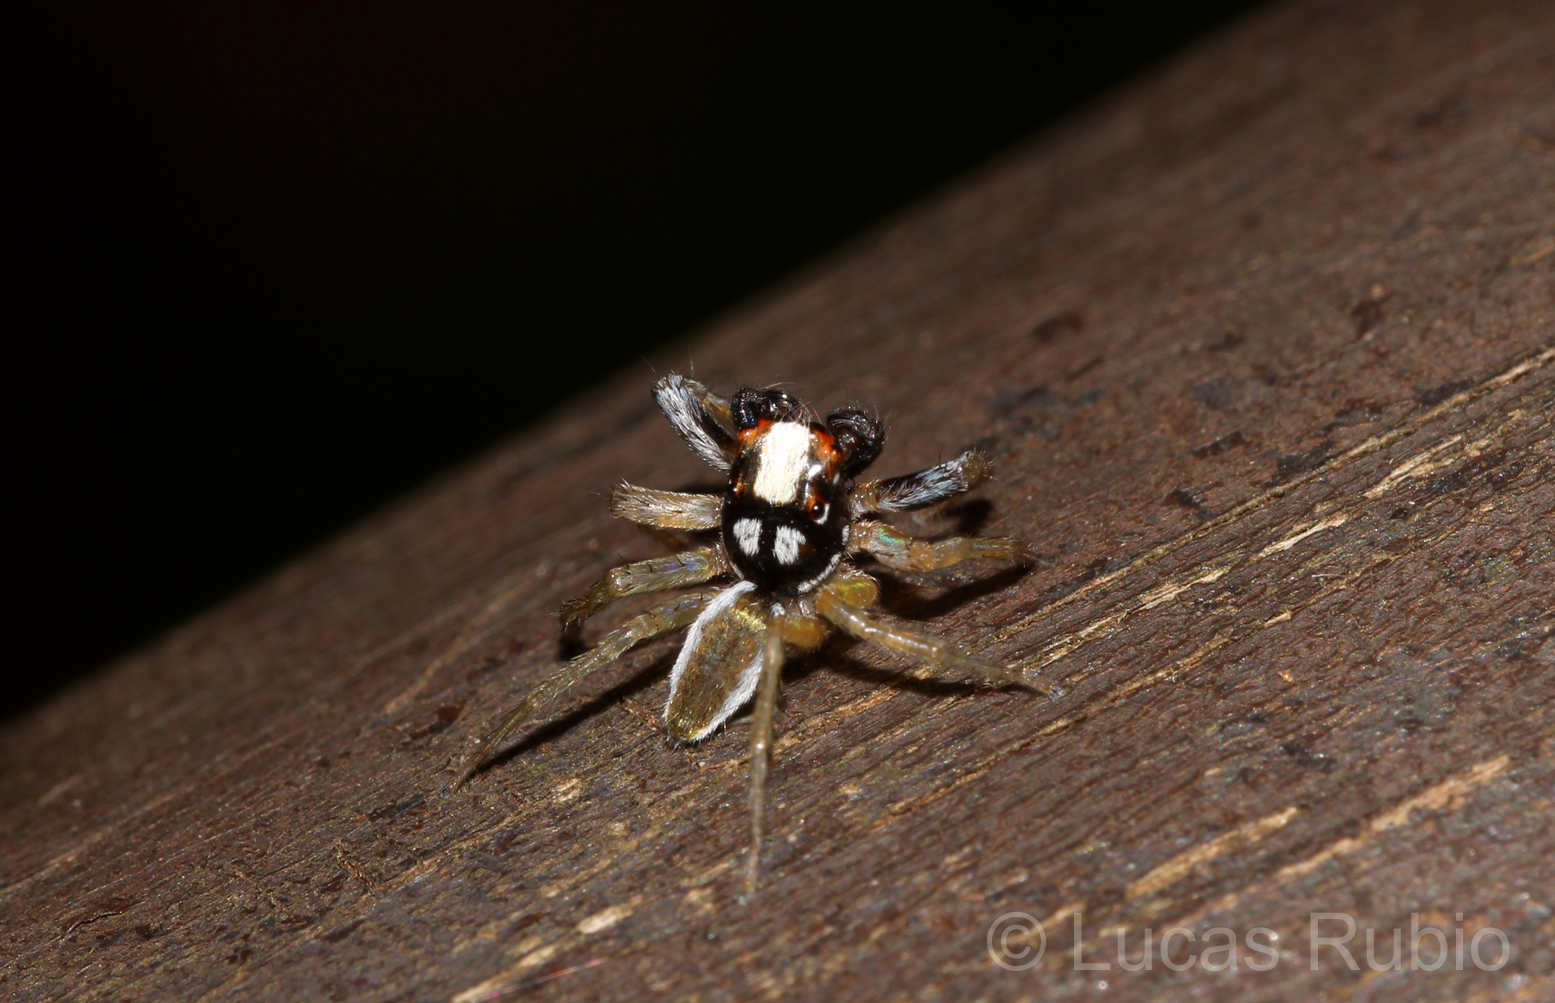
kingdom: Animalia
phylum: Arthropoda
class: Arachnida
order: Araneae
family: Salticidae
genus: Chira
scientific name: Chira spinosa
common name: Jumping spiders
